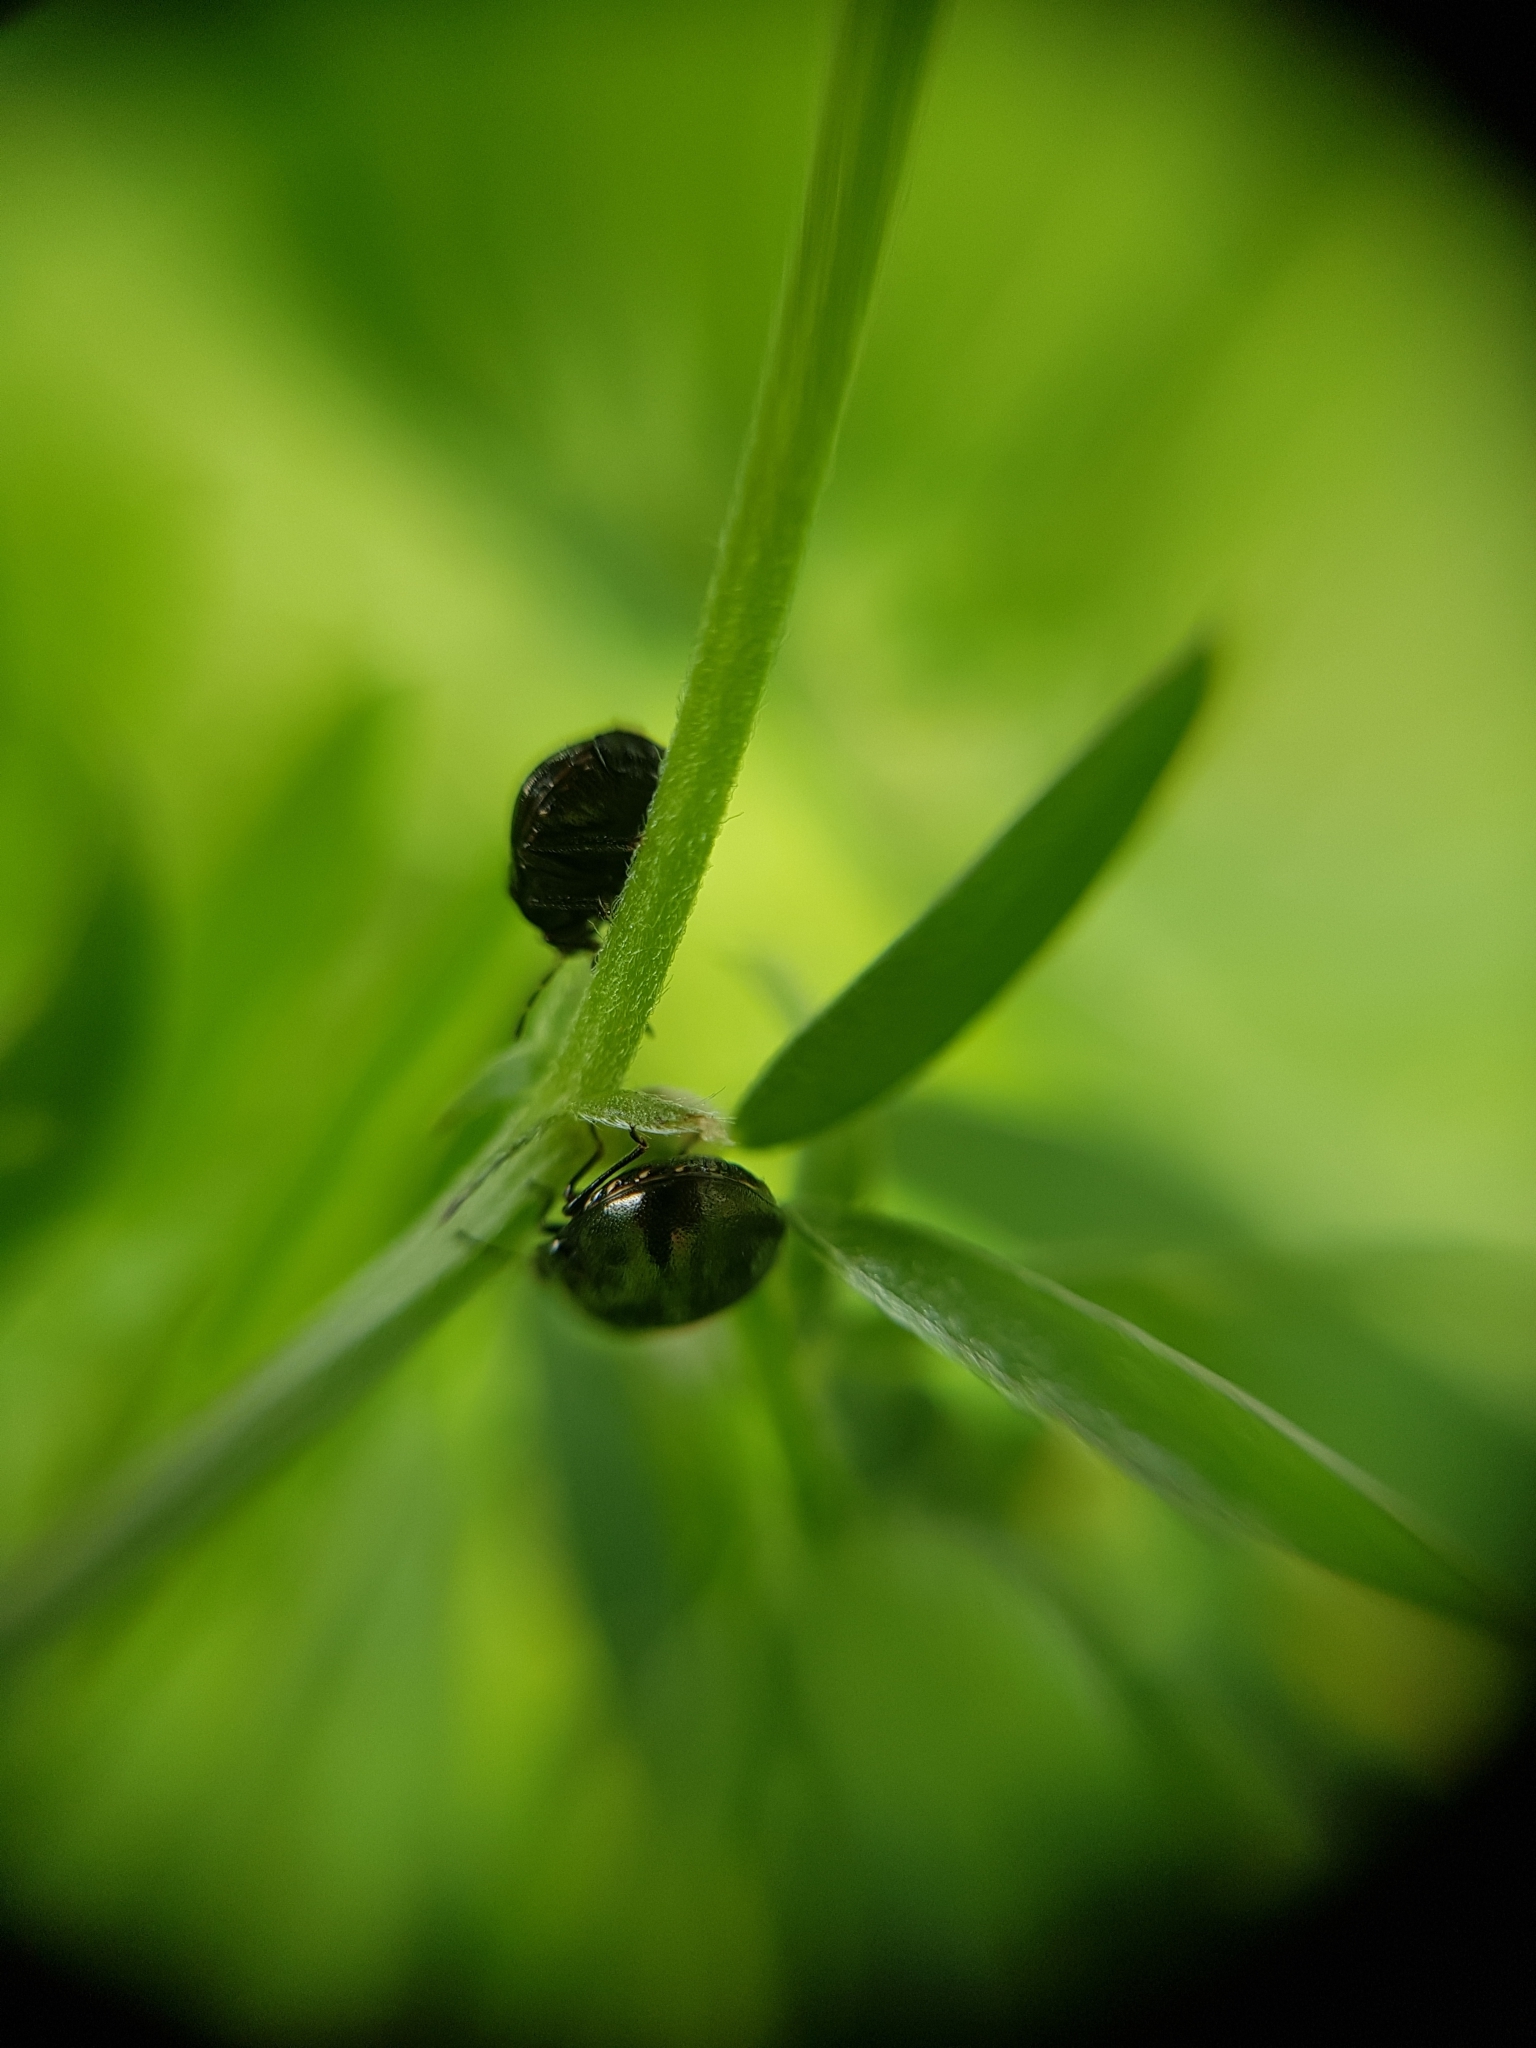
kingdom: Animalia
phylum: Arthropoda
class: Insecta
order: Hemiptera
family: Plataspidae
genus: Coptosoma
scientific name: Coptosoma scutellatum
